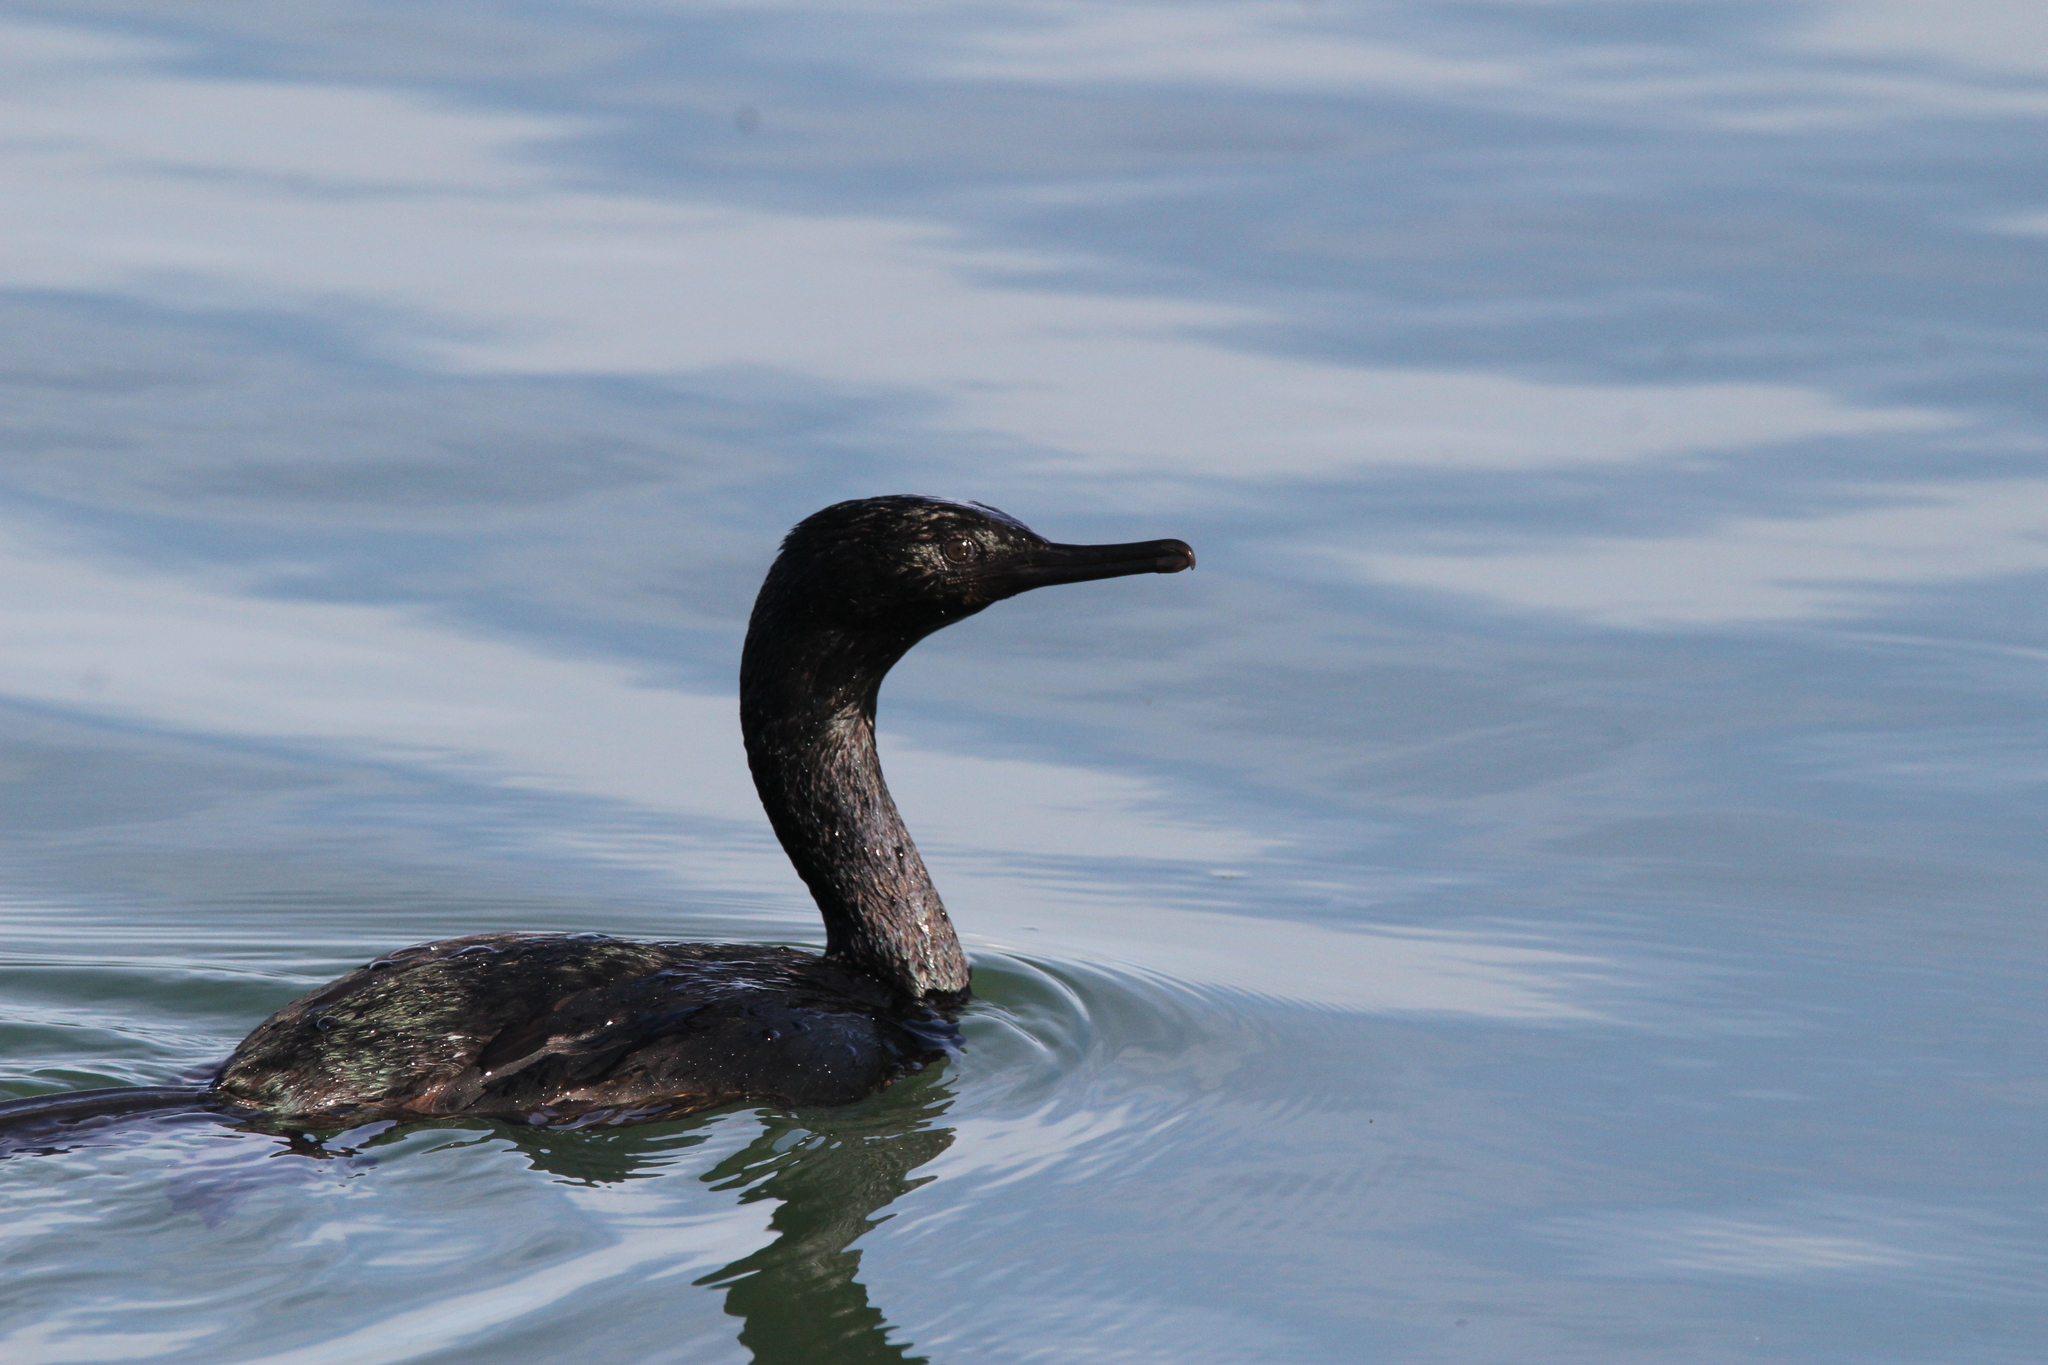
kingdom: Animalia
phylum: Chordata
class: Aves
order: Suliformes
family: Phalacrocoracidae
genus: Phalacrocorax
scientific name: Phalacrocorax pelagicus
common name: Pelagic cormorant
